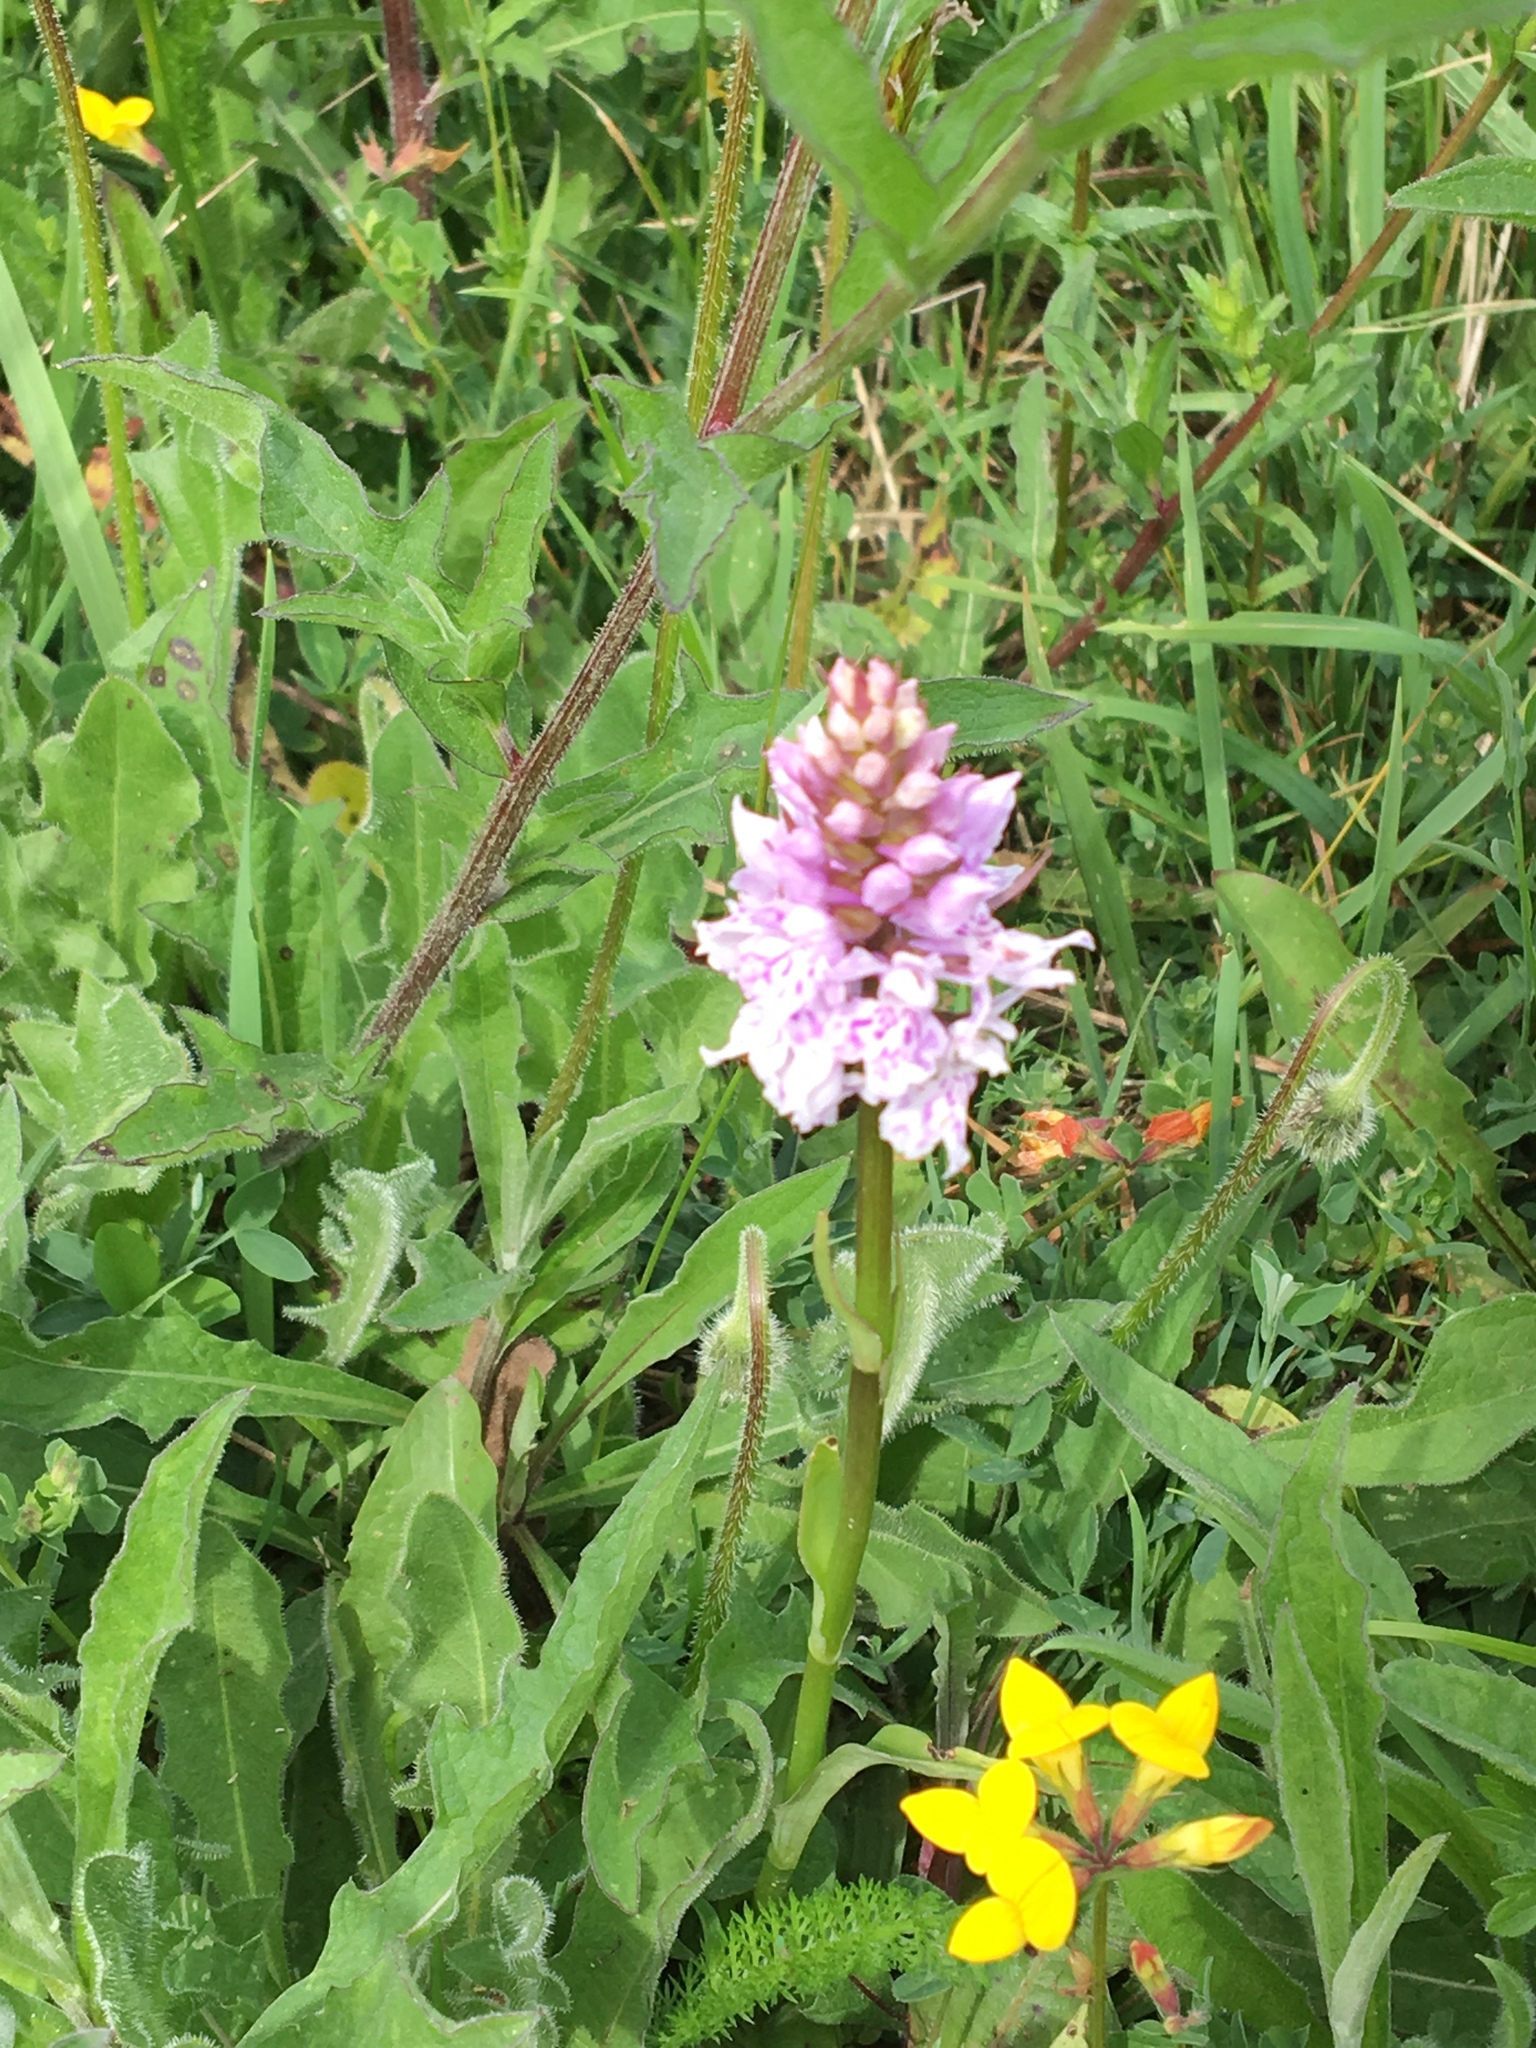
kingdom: Plantae
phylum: Tracheophyta
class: Liliopsida
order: Asparagales
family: Orchidaceae
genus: Dactylorhiza
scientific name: Dactylorhiza maculata
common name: Heath spotted-orchid
